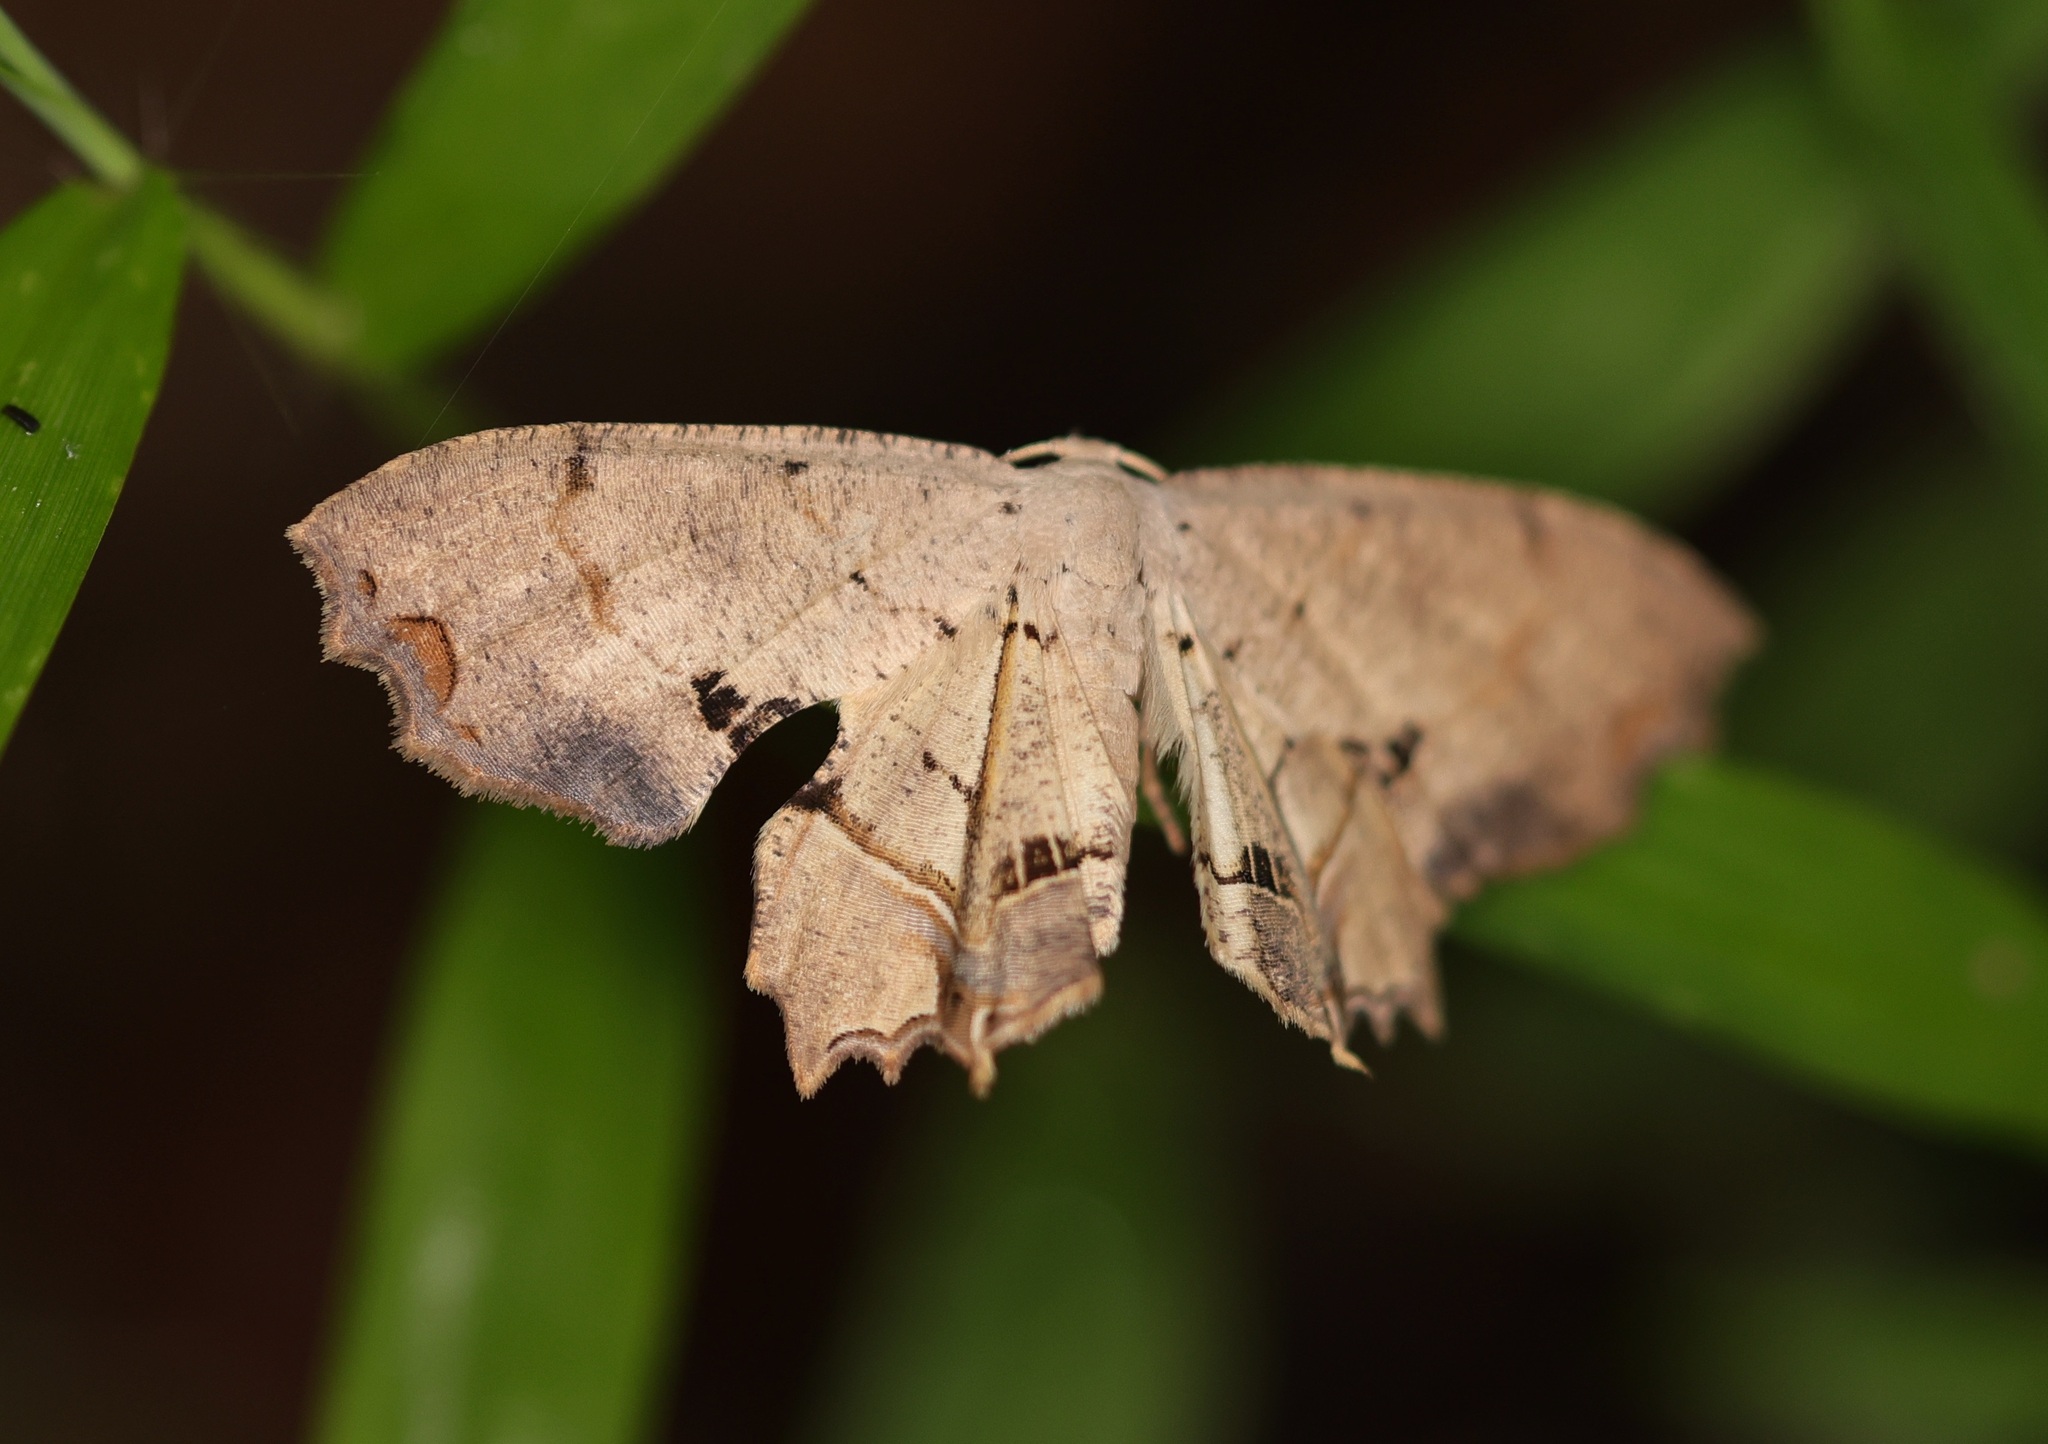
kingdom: Animalia
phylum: Arthropoda
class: Insecta
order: Lepidoptera
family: Uraniidae
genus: Dysaethria
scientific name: Dysaethria flavistriga
